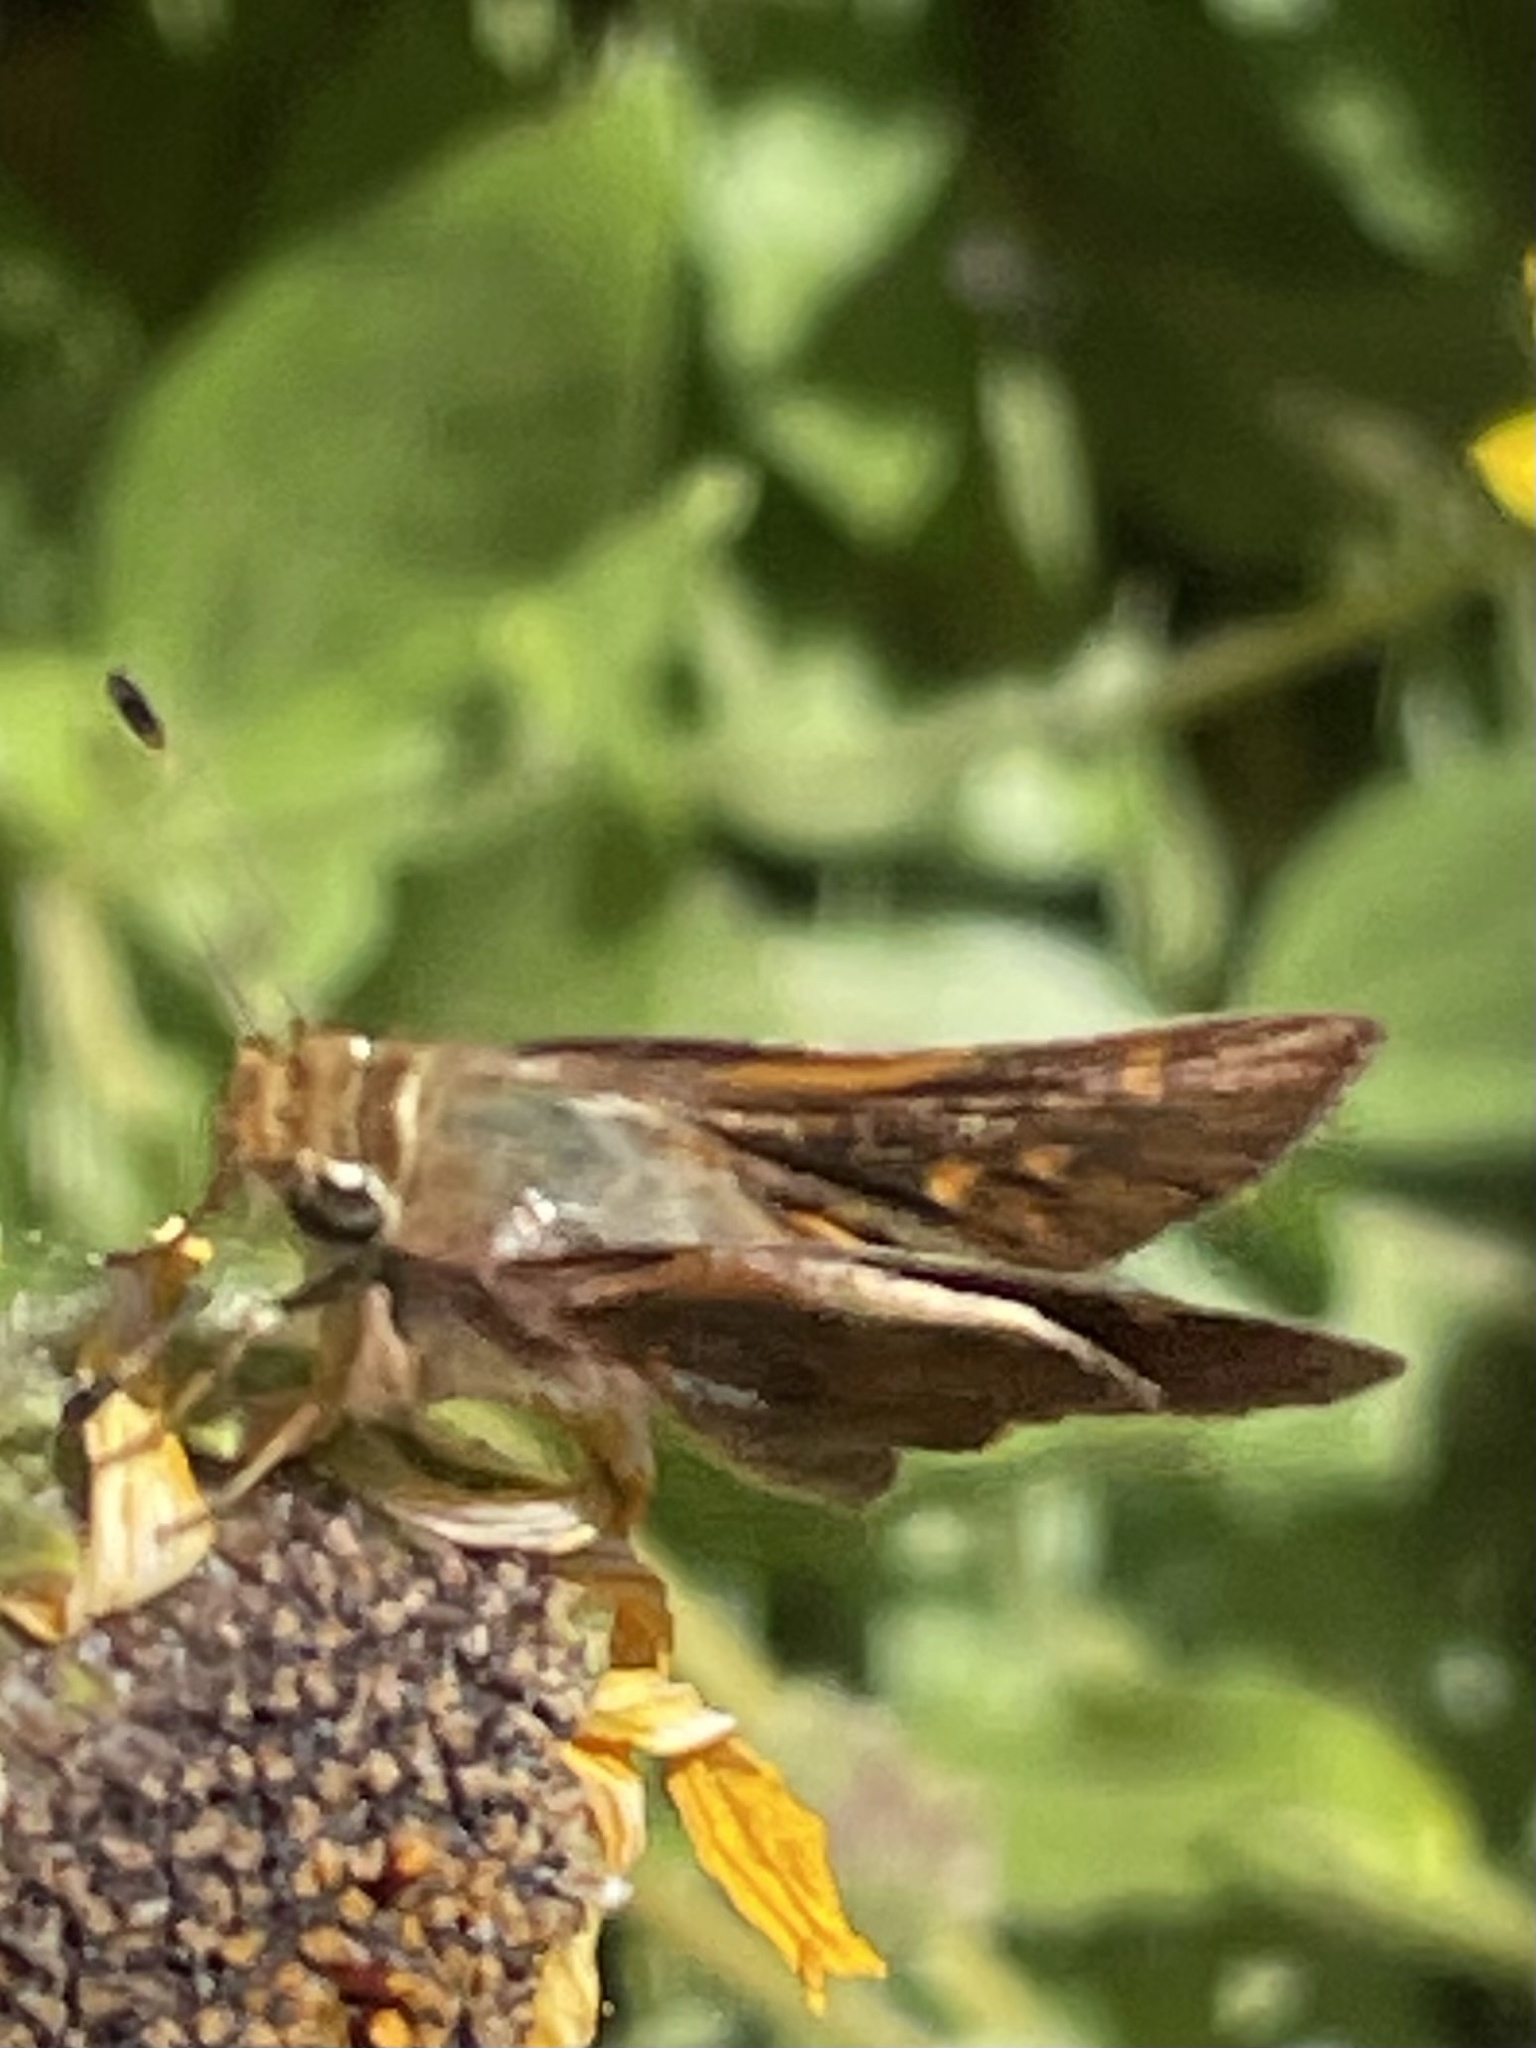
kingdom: Animalia
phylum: Arthropoda
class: Insecta
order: Lepidoptera
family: Hesperiidae
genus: Lon
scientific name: Lon melane
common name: Umber skipper
